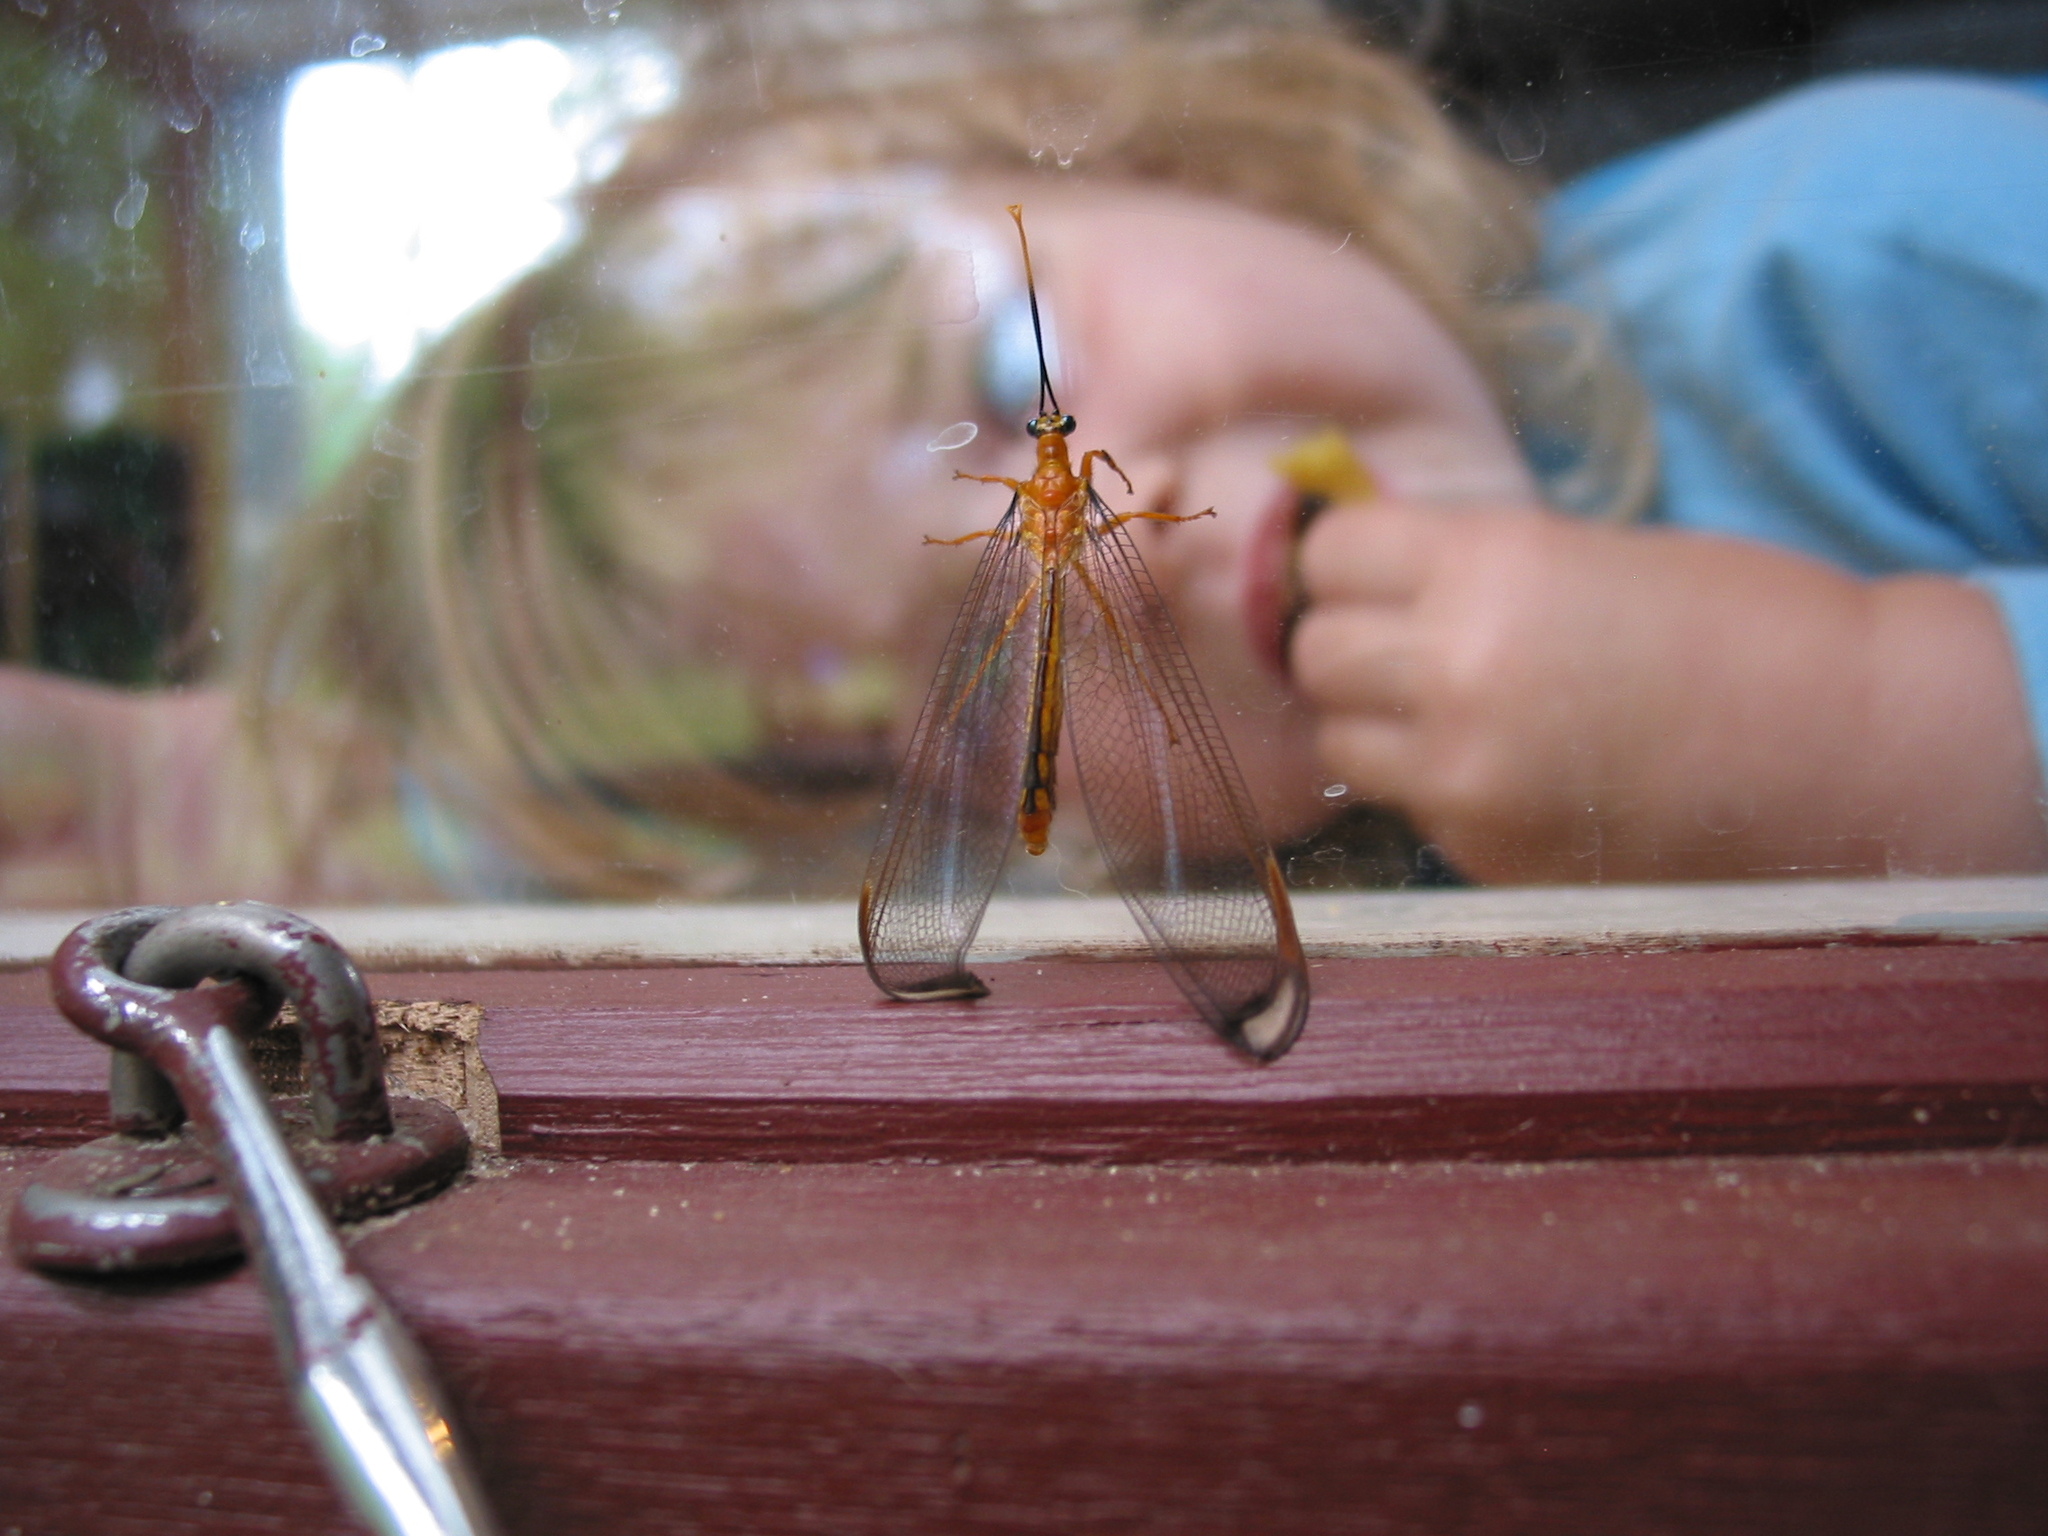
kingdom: Animalia
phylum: Arthropoda
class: Insecta
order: Neuroptera
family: Nymphidae
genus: Nymphes
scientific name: Nymphes myrmeleonoides
